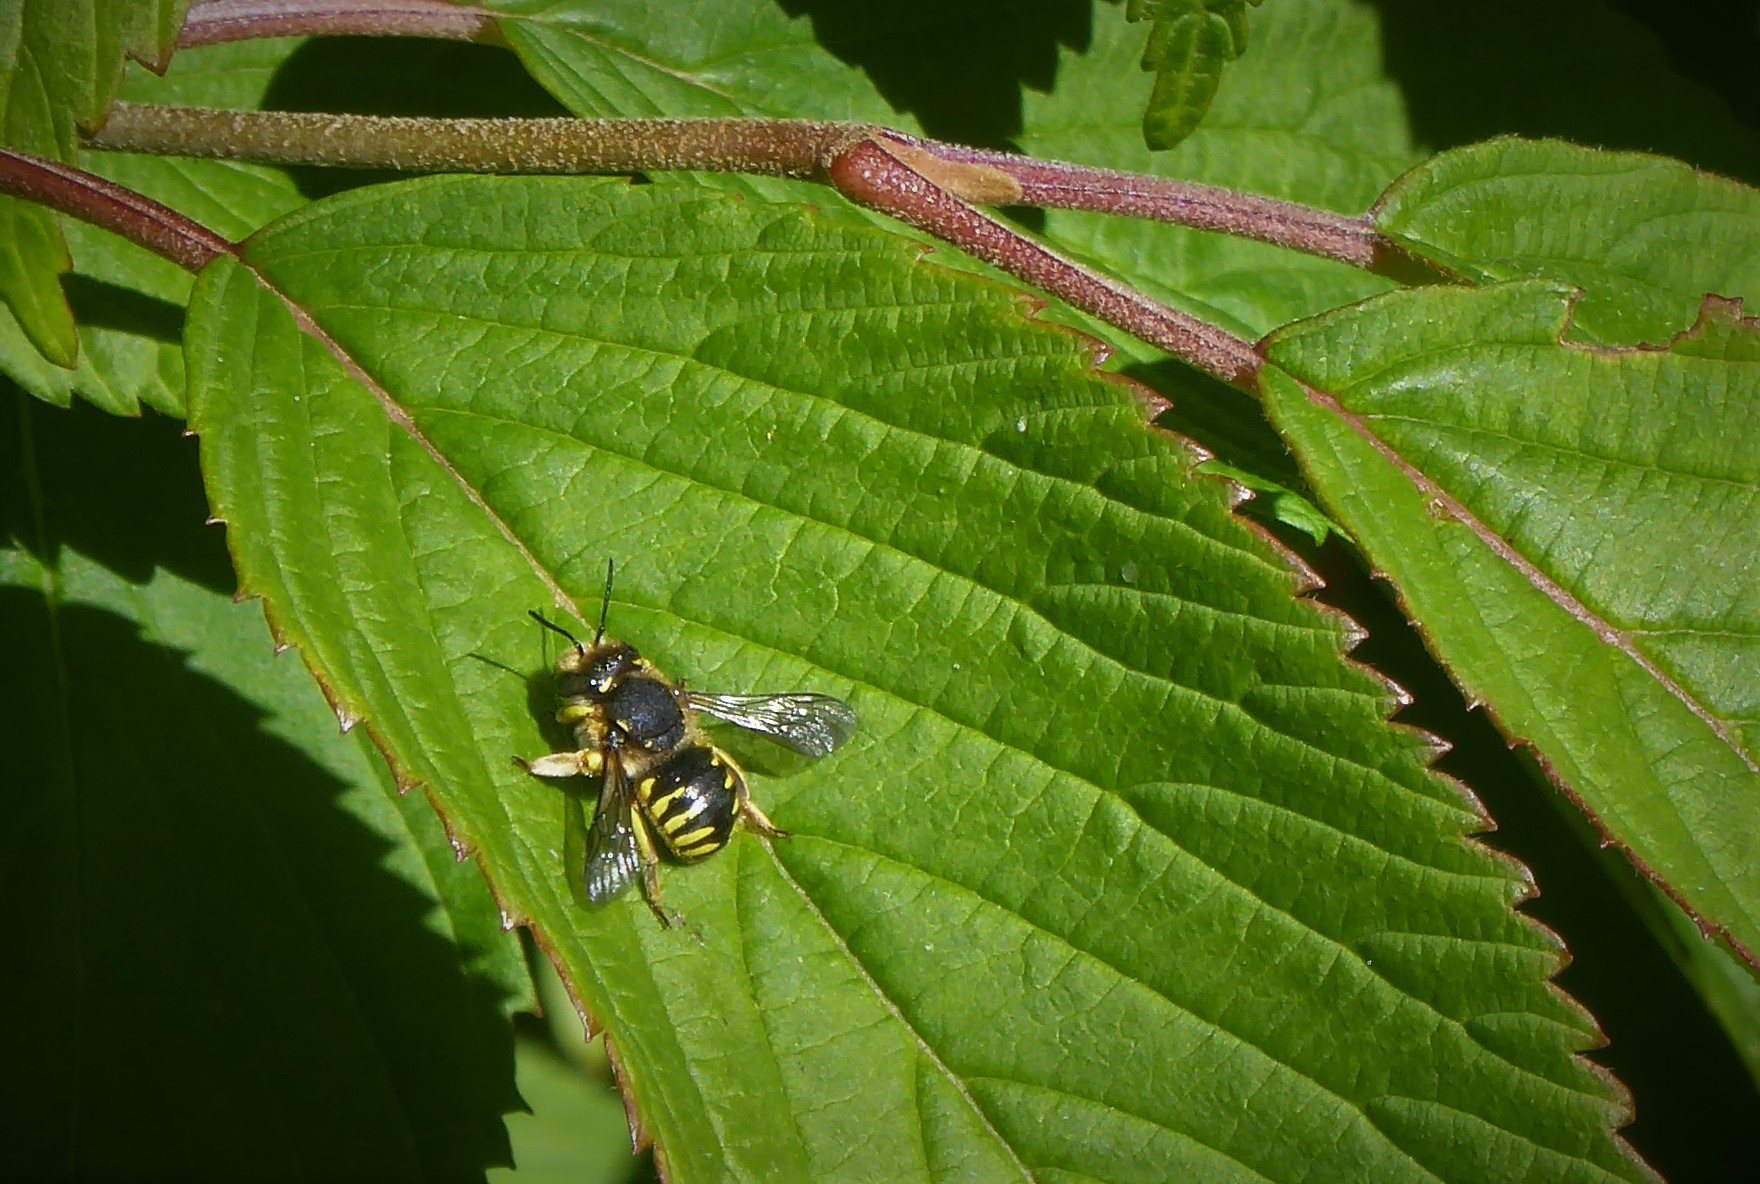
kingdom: Animalia
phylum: Arthropoda
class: Insecta
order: Hymenoptera
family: Megachilidae
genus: Anthidium
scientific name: Anthidium manicatum
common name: Wool carder bee
